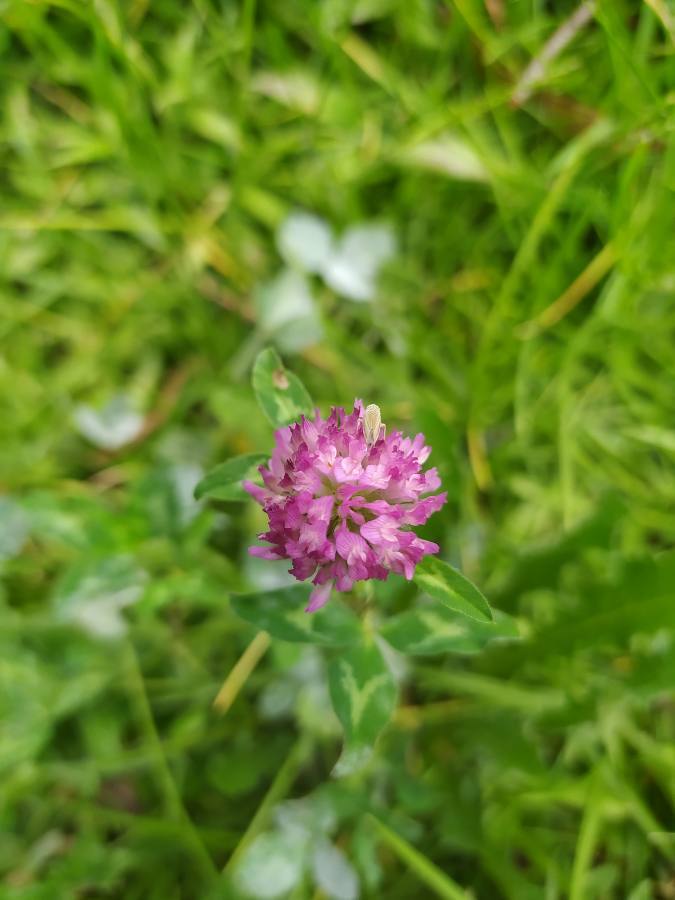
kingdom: Plantae
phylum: Tracheophyta
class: Magnoliopsida
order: Fabales
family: Fabaceae
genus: Trifolium
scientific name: Trifolium pratense
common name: Red clover
